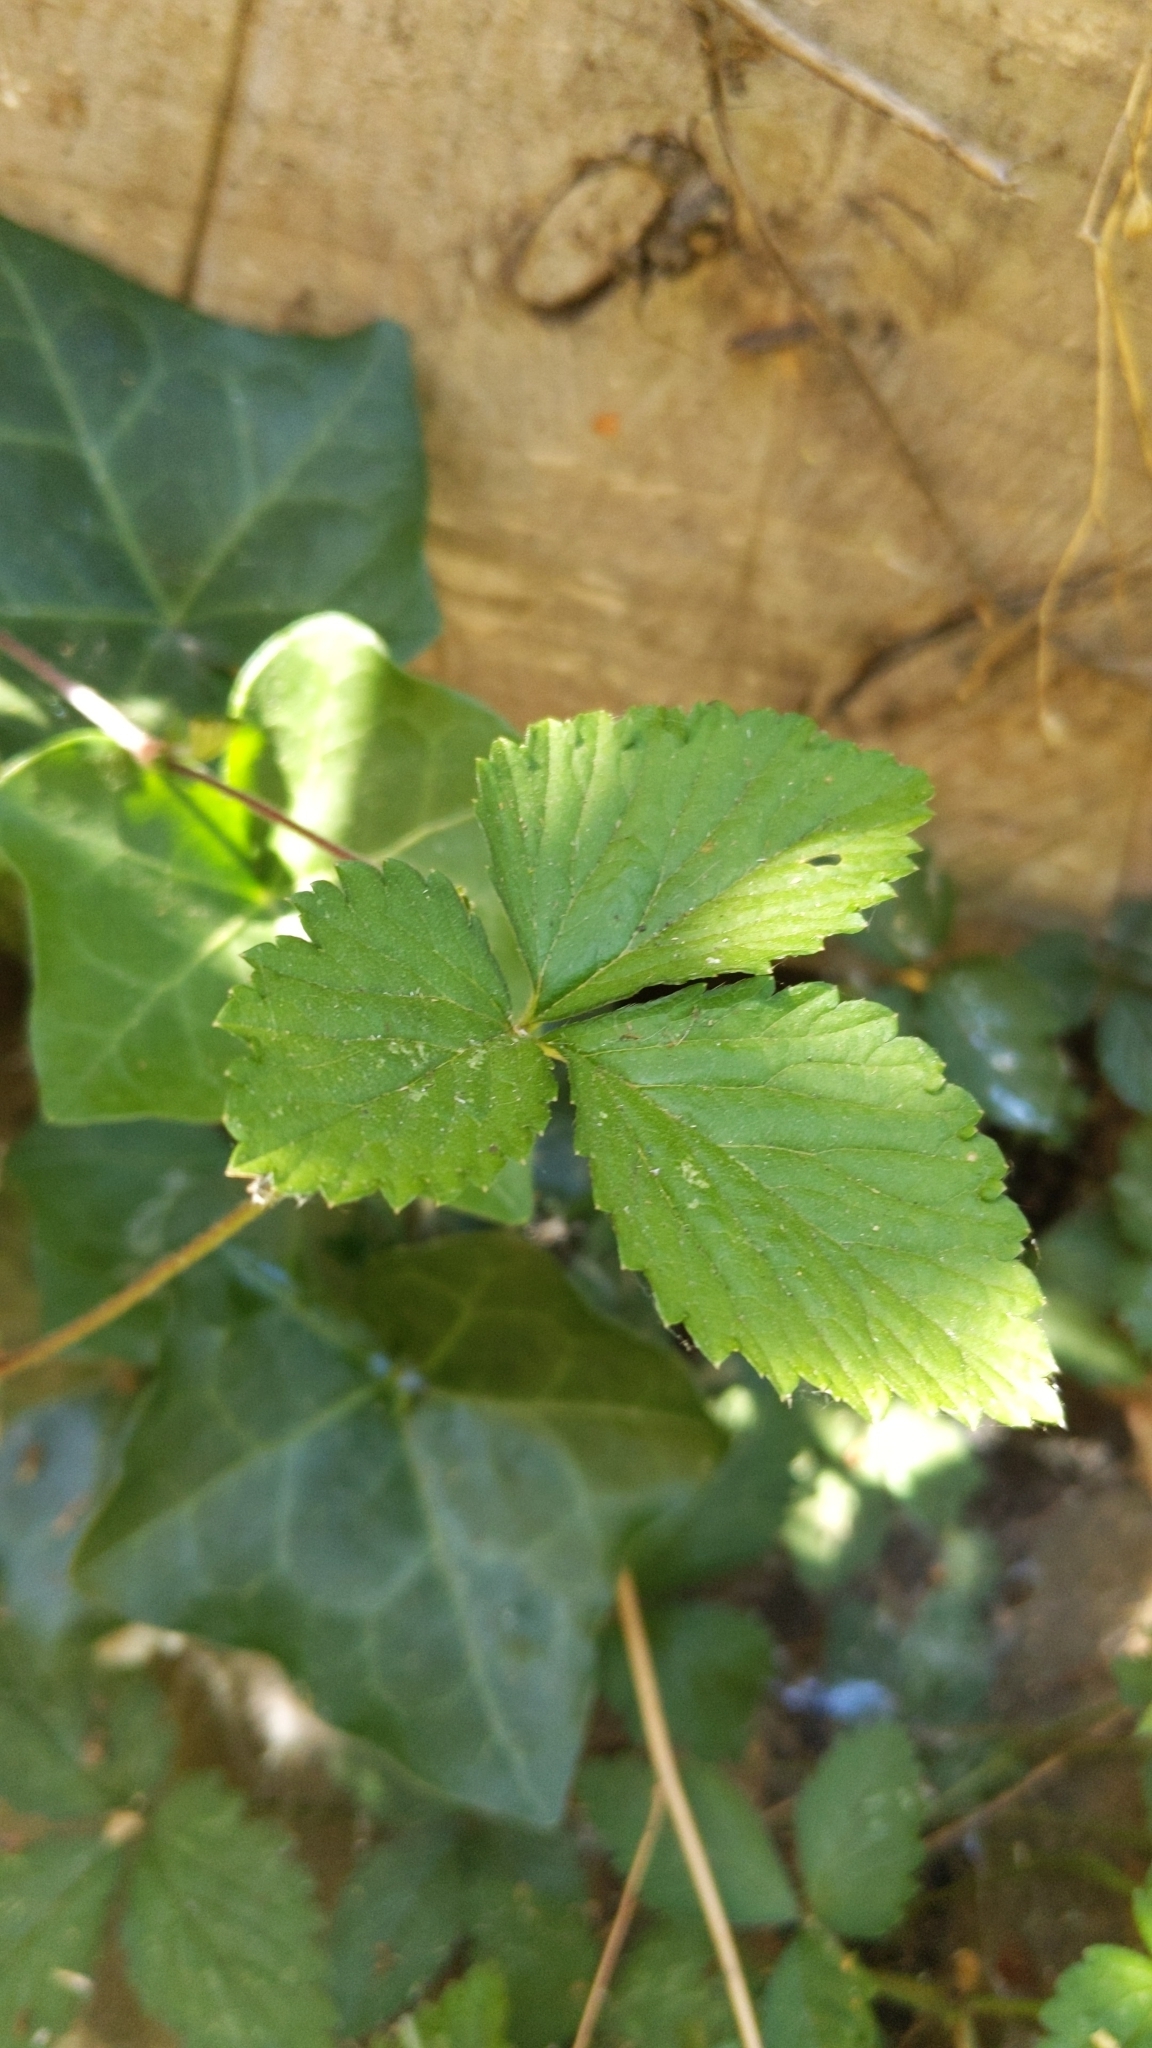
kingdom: Plantae
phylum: Tracheophyta
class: Magnoliopsida
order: Rosales
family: Rosaceae
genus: Potentilla
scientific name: Potentilla indica
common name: Yellow-flowered strawberry
